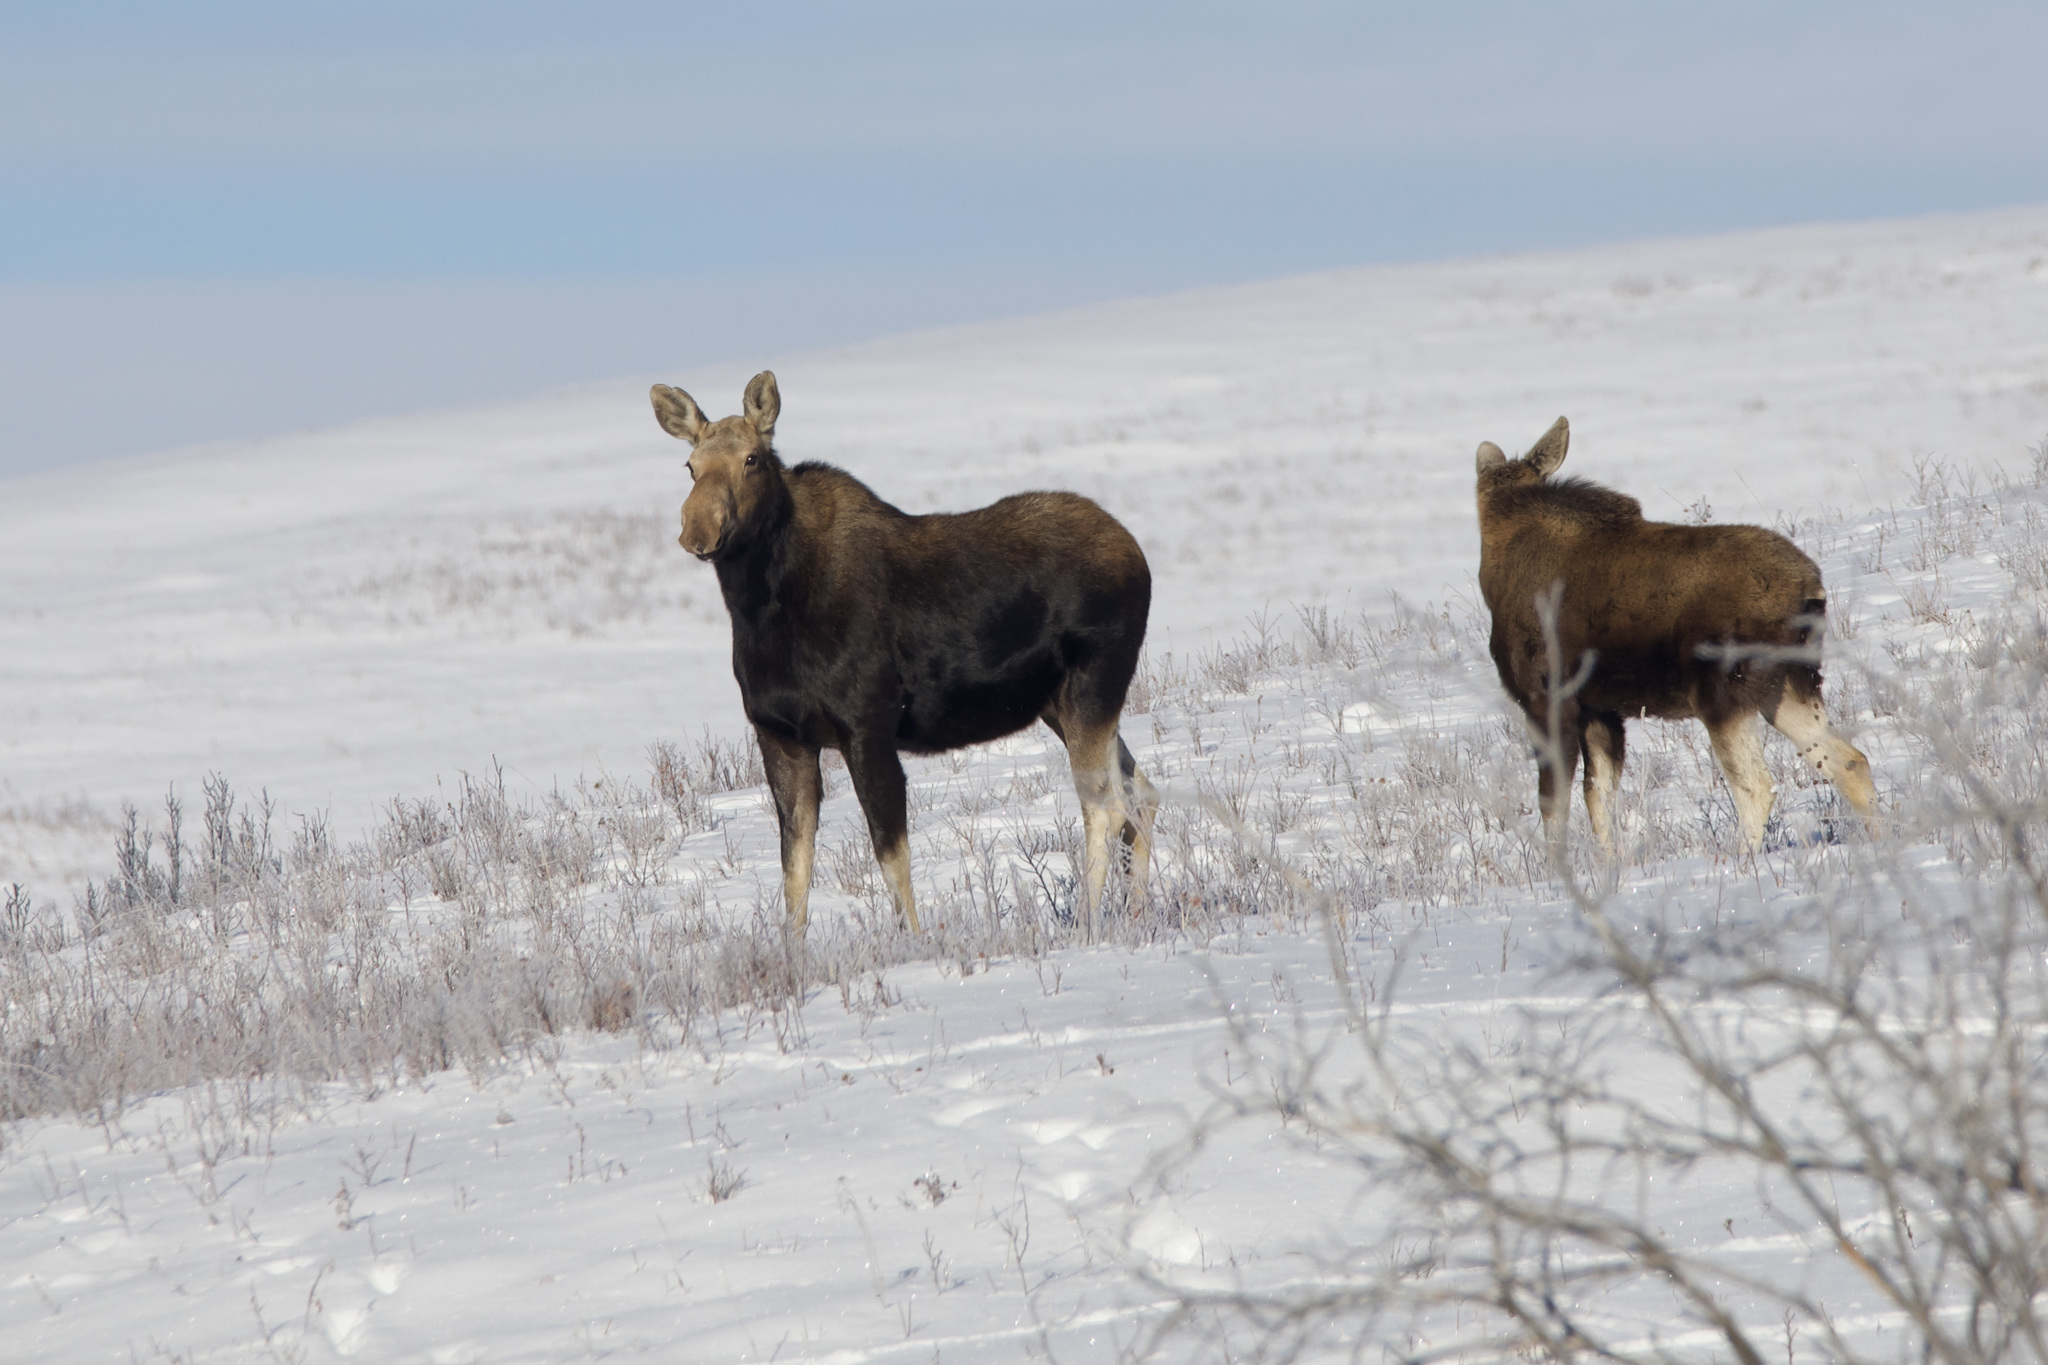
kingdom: Animalia
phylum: Chordata
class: Mammalia
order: Artiodactyla
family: Cervidae
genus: Alces
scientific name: Alces alces
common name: Moose
